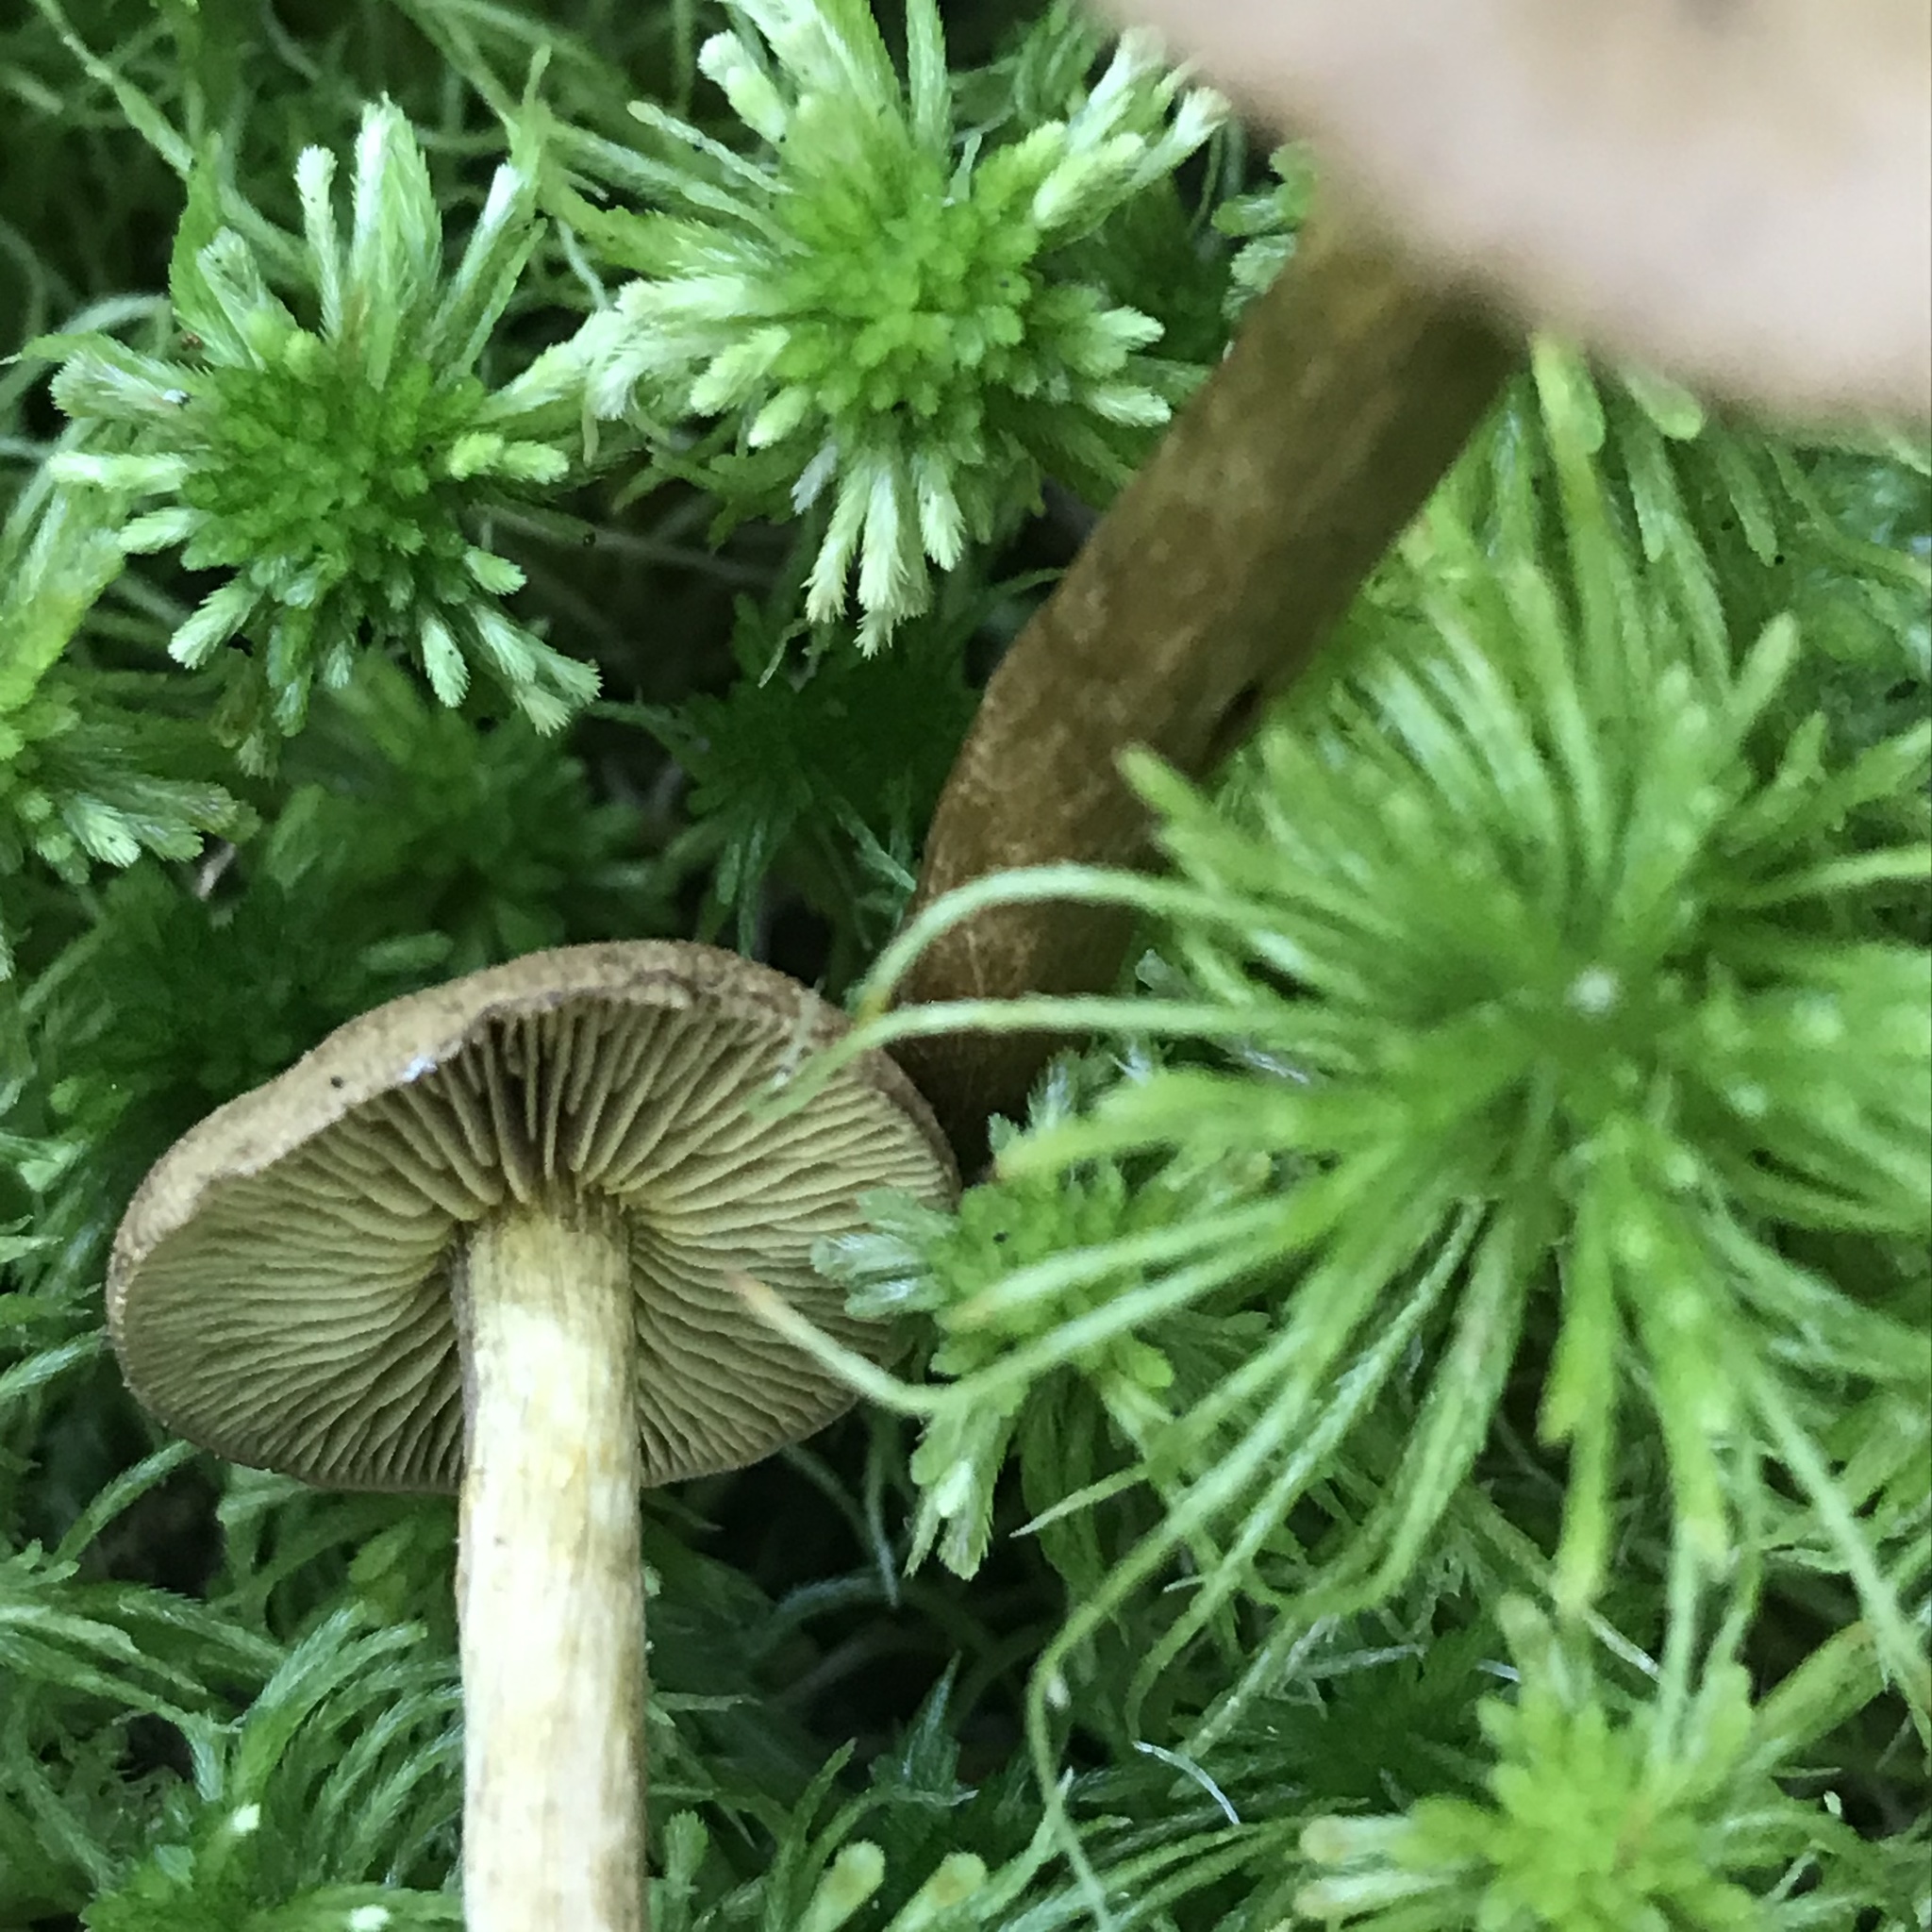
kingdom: Fungi
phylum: Basidiomycota
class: Agaricomycetes
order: Agaricales
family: Cortinariaceae
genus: Cortinarius
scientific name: Cortinarius chrysolitus
